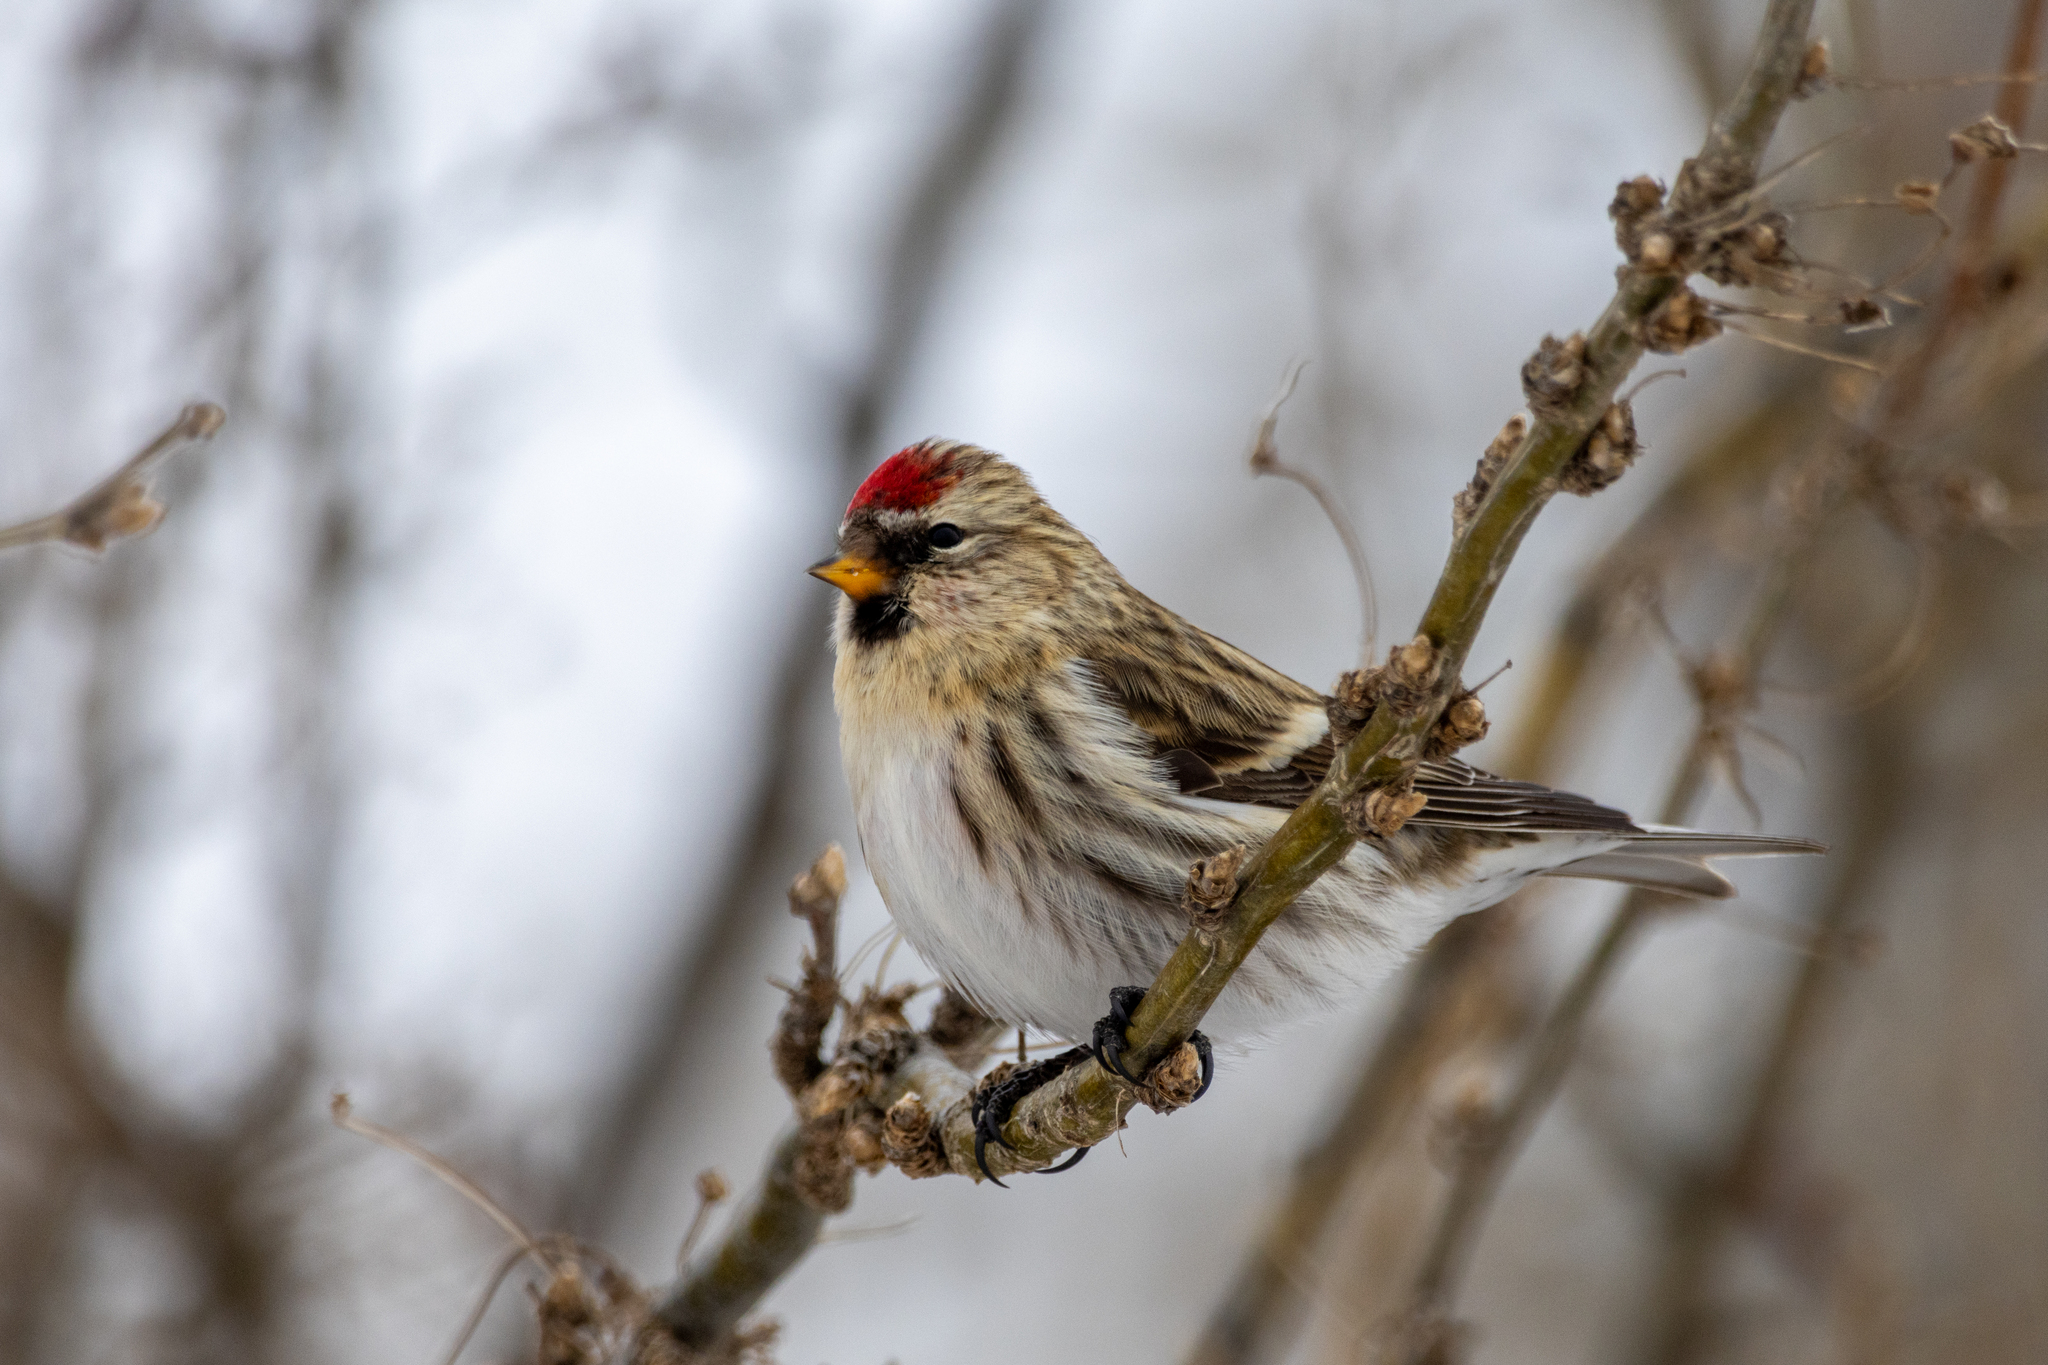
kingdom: Animalia
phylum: Chordata
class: Aves
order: Passeriformes
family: Fringillidae
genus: Acanthis
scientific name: Acanthis flammea
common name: Common redpoll
